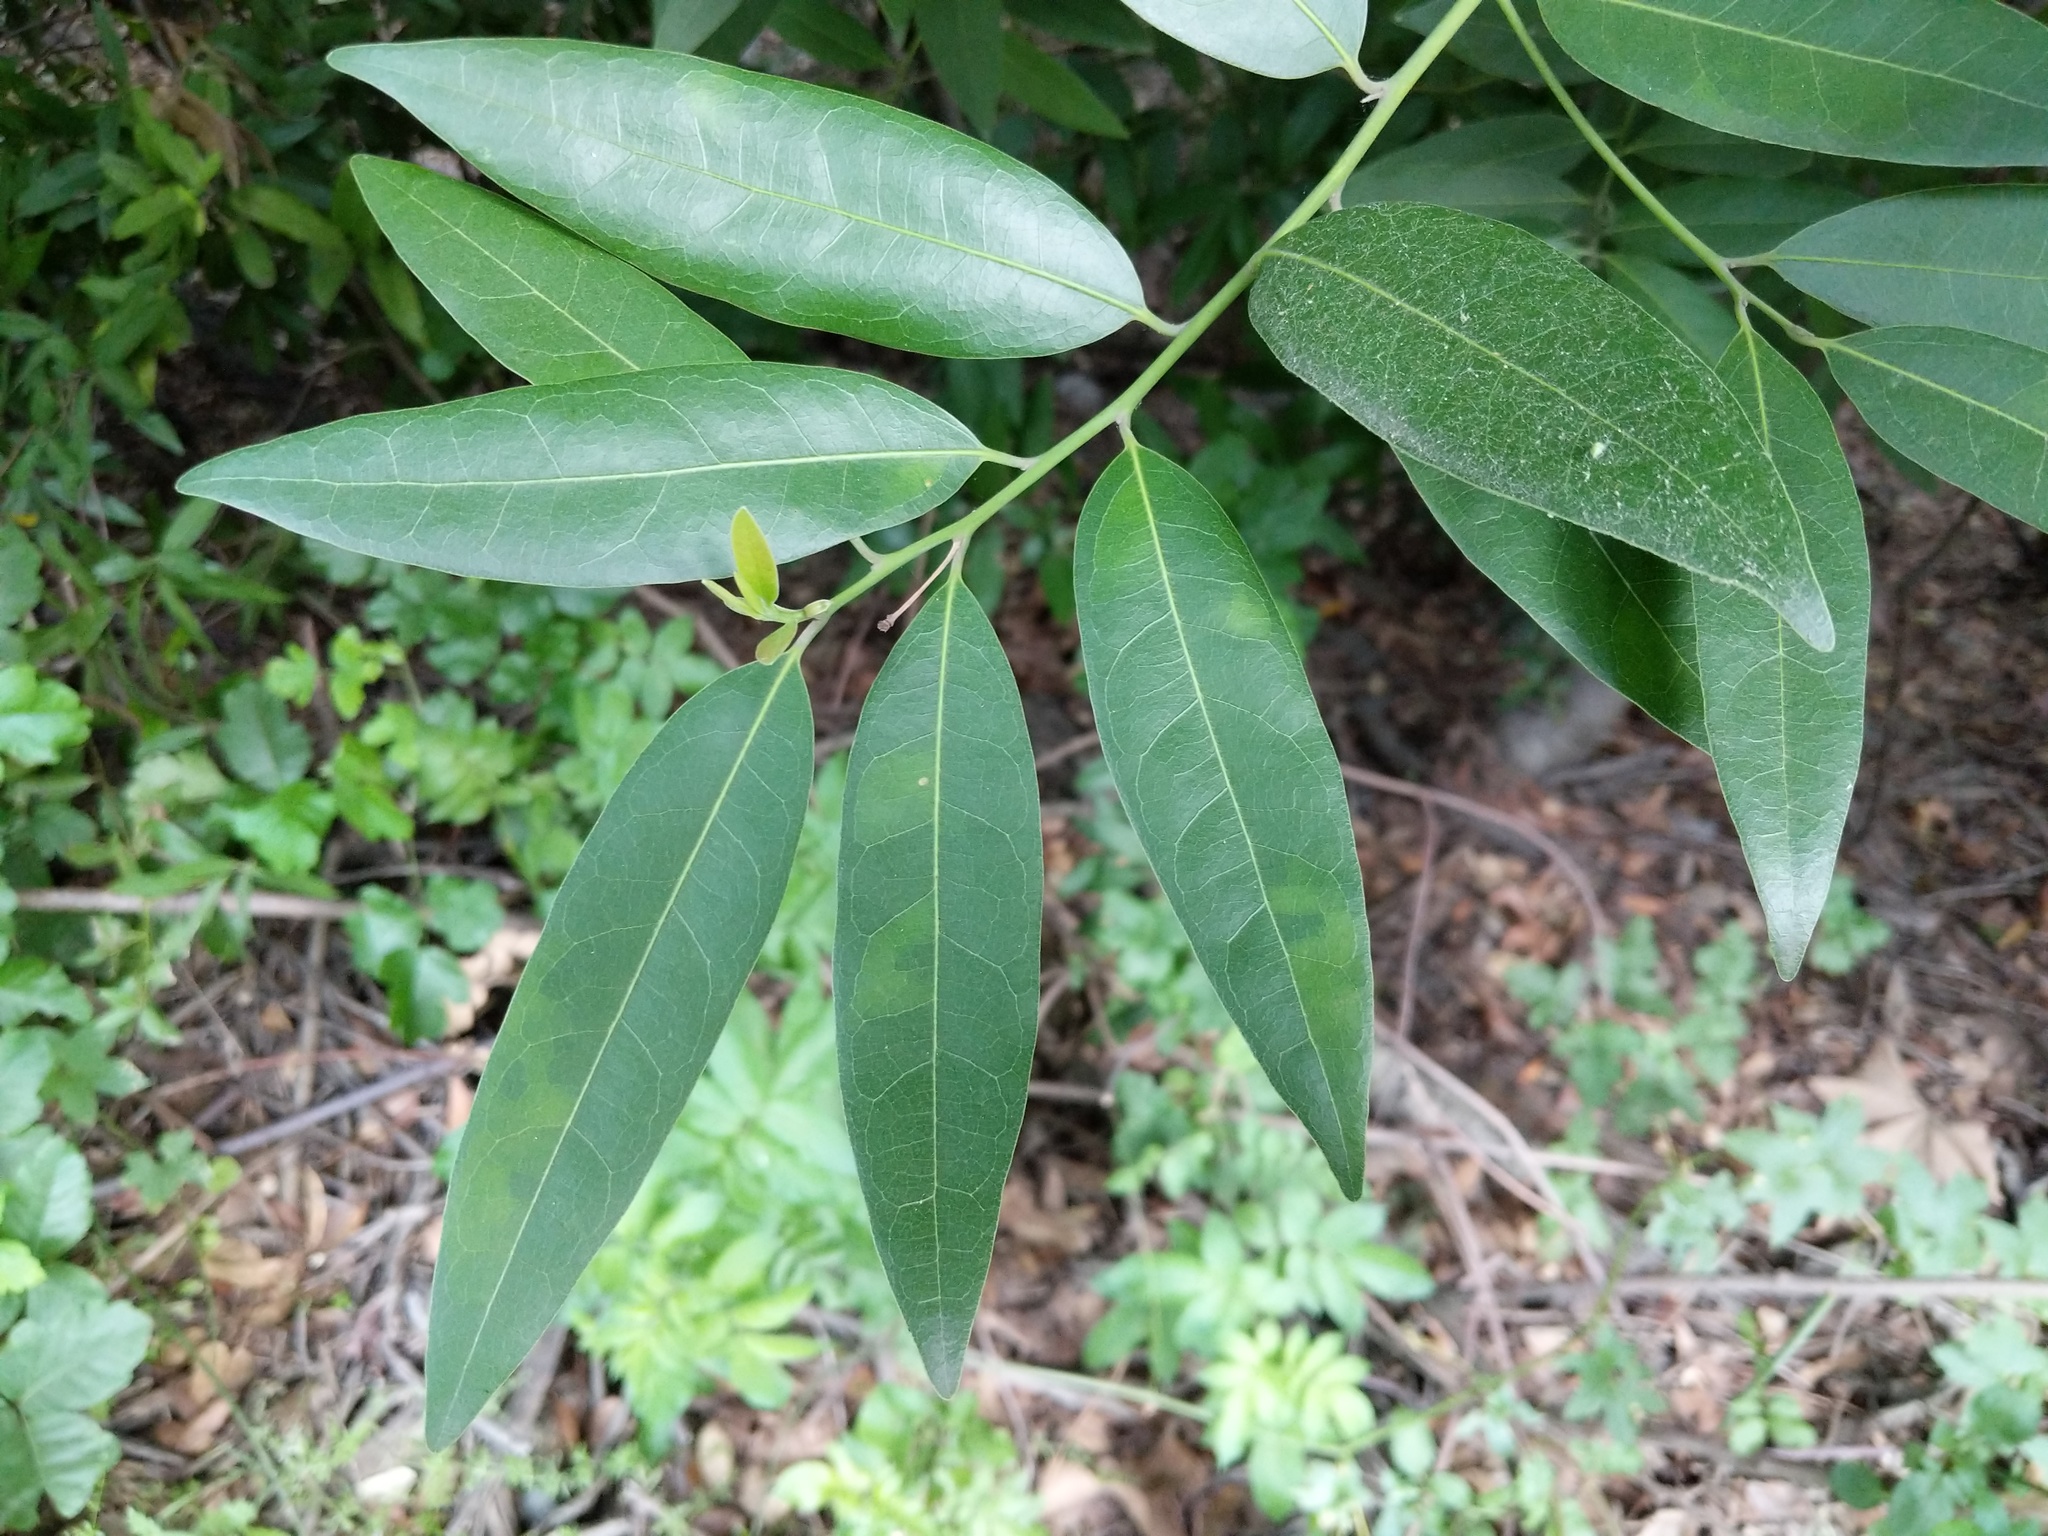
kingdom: Plantae
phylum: Tracheophyta
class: Magnoliopsida
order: Laurales
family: Lauraceae
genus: Umbellularia
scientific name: Umbellularia californica
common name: California bay
